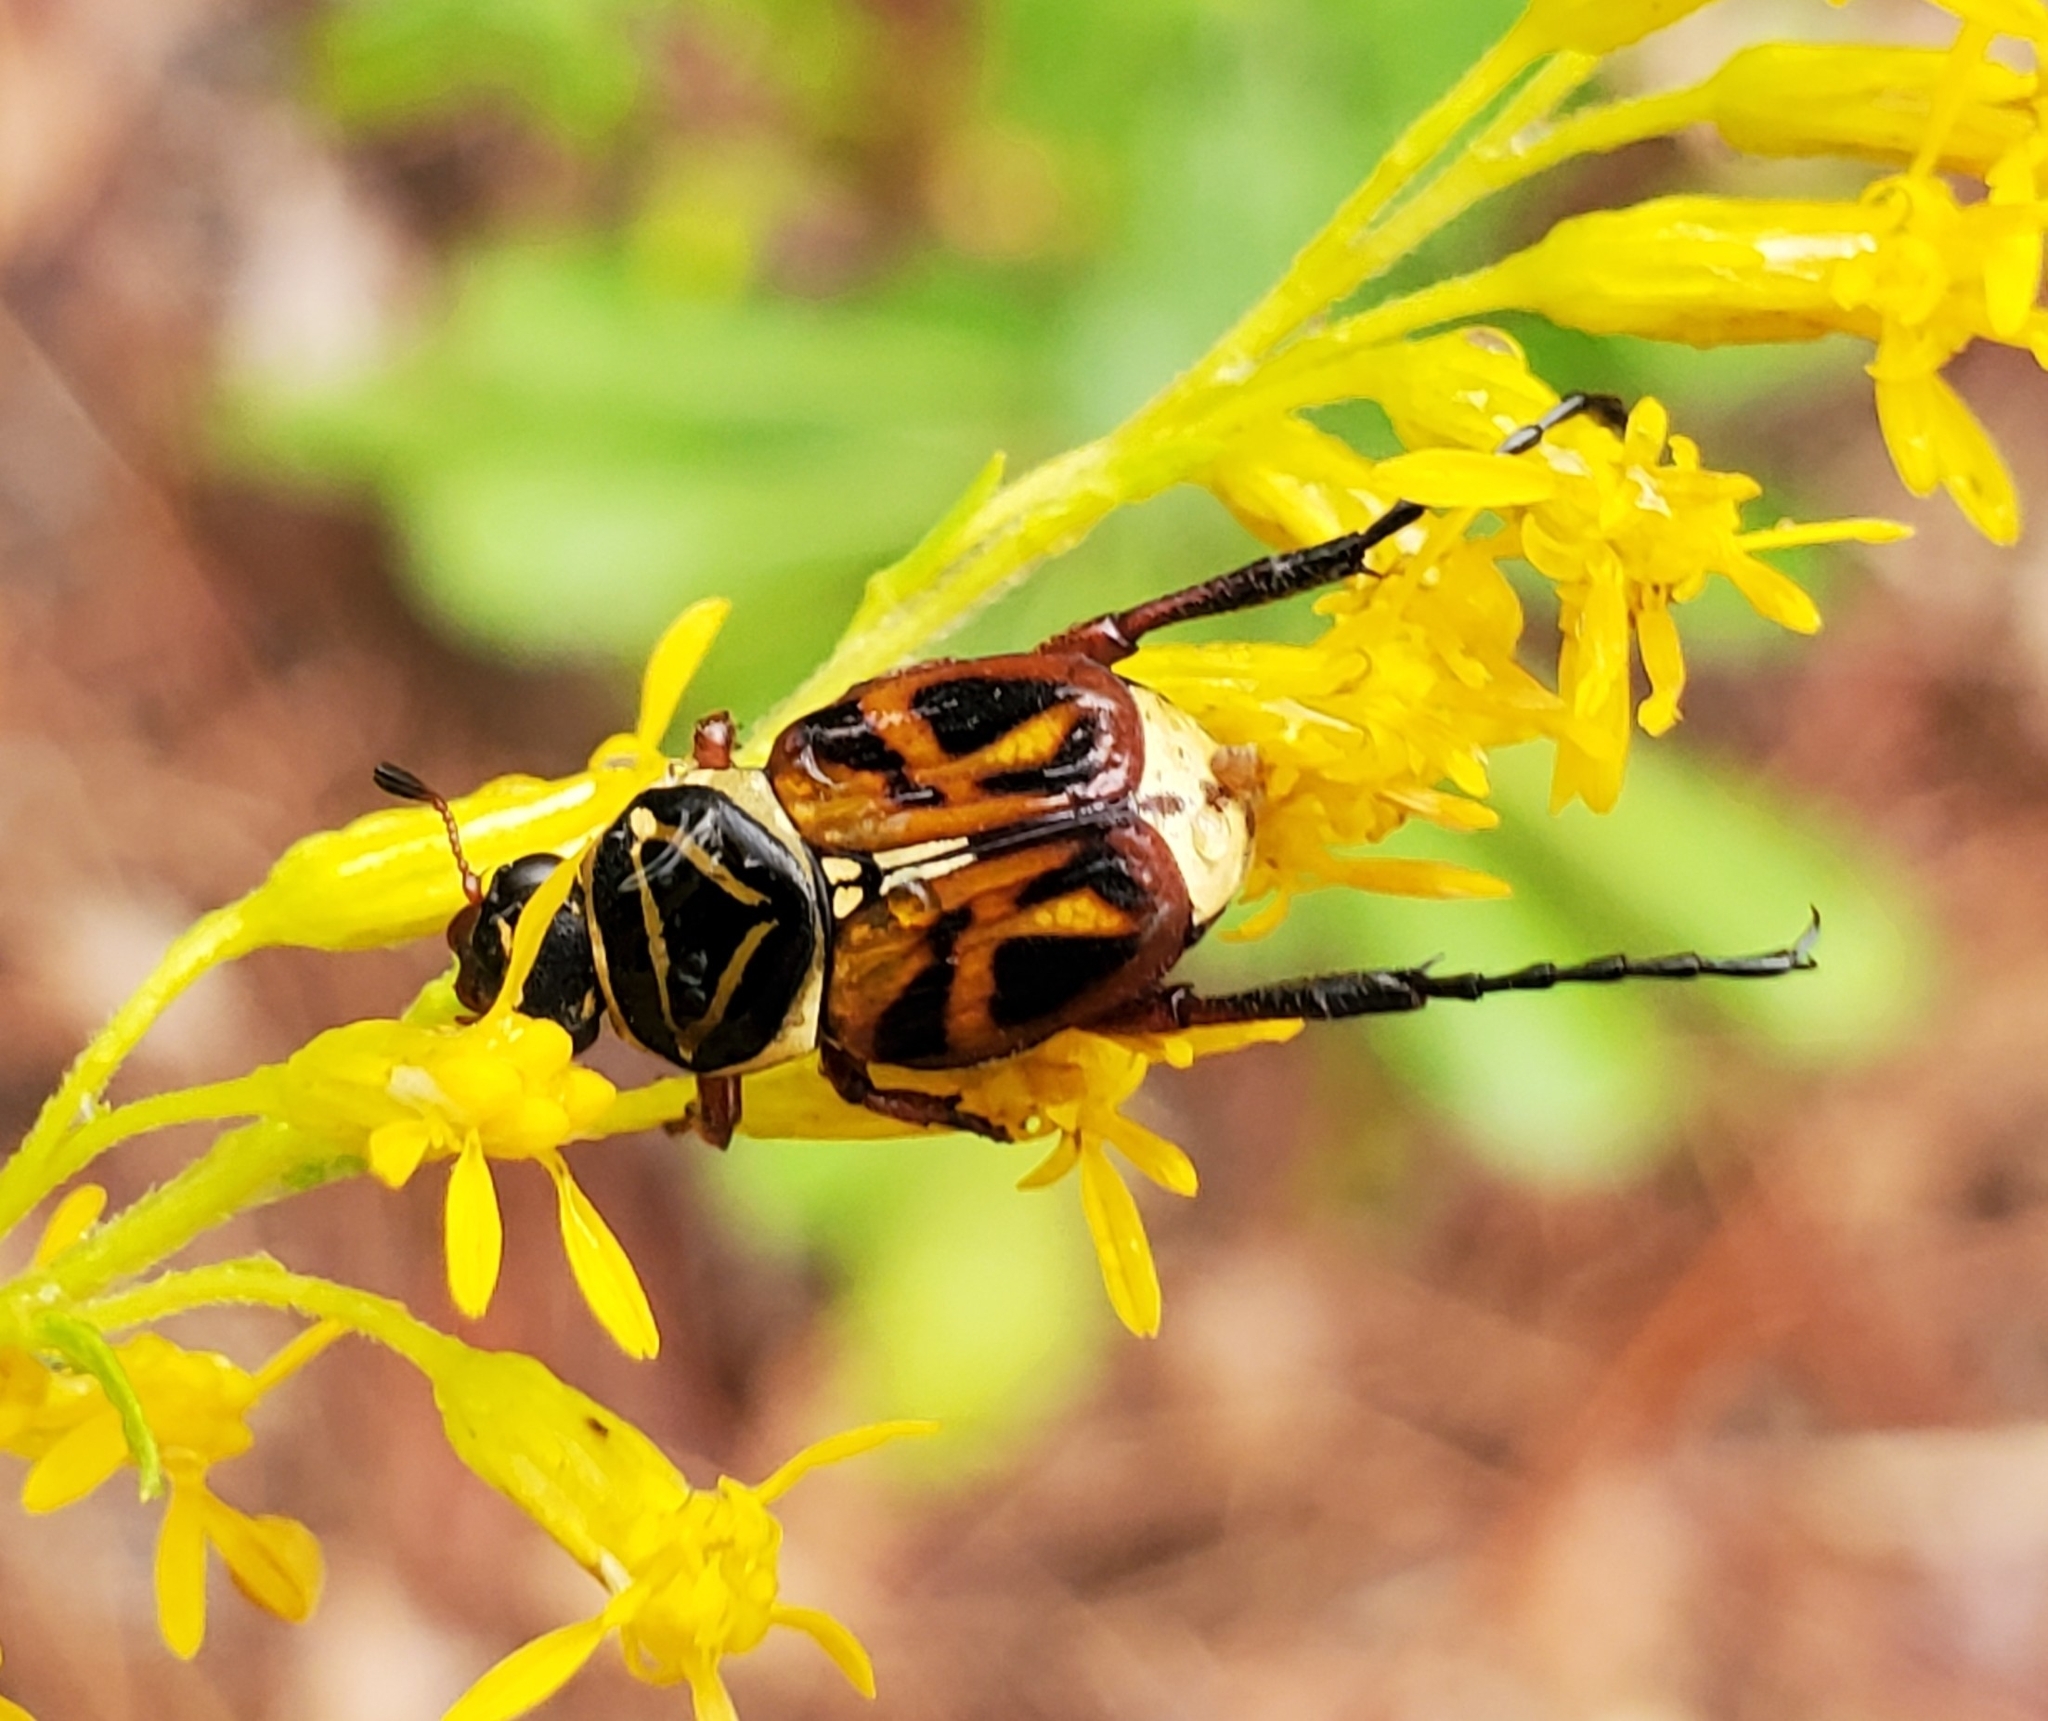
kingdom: Animalia
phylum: Arthropoda
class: Insecta
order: Coleoptera
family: Scarabaeidae
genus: Trigonopeltastes
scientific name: Trigonopeltastes delta
